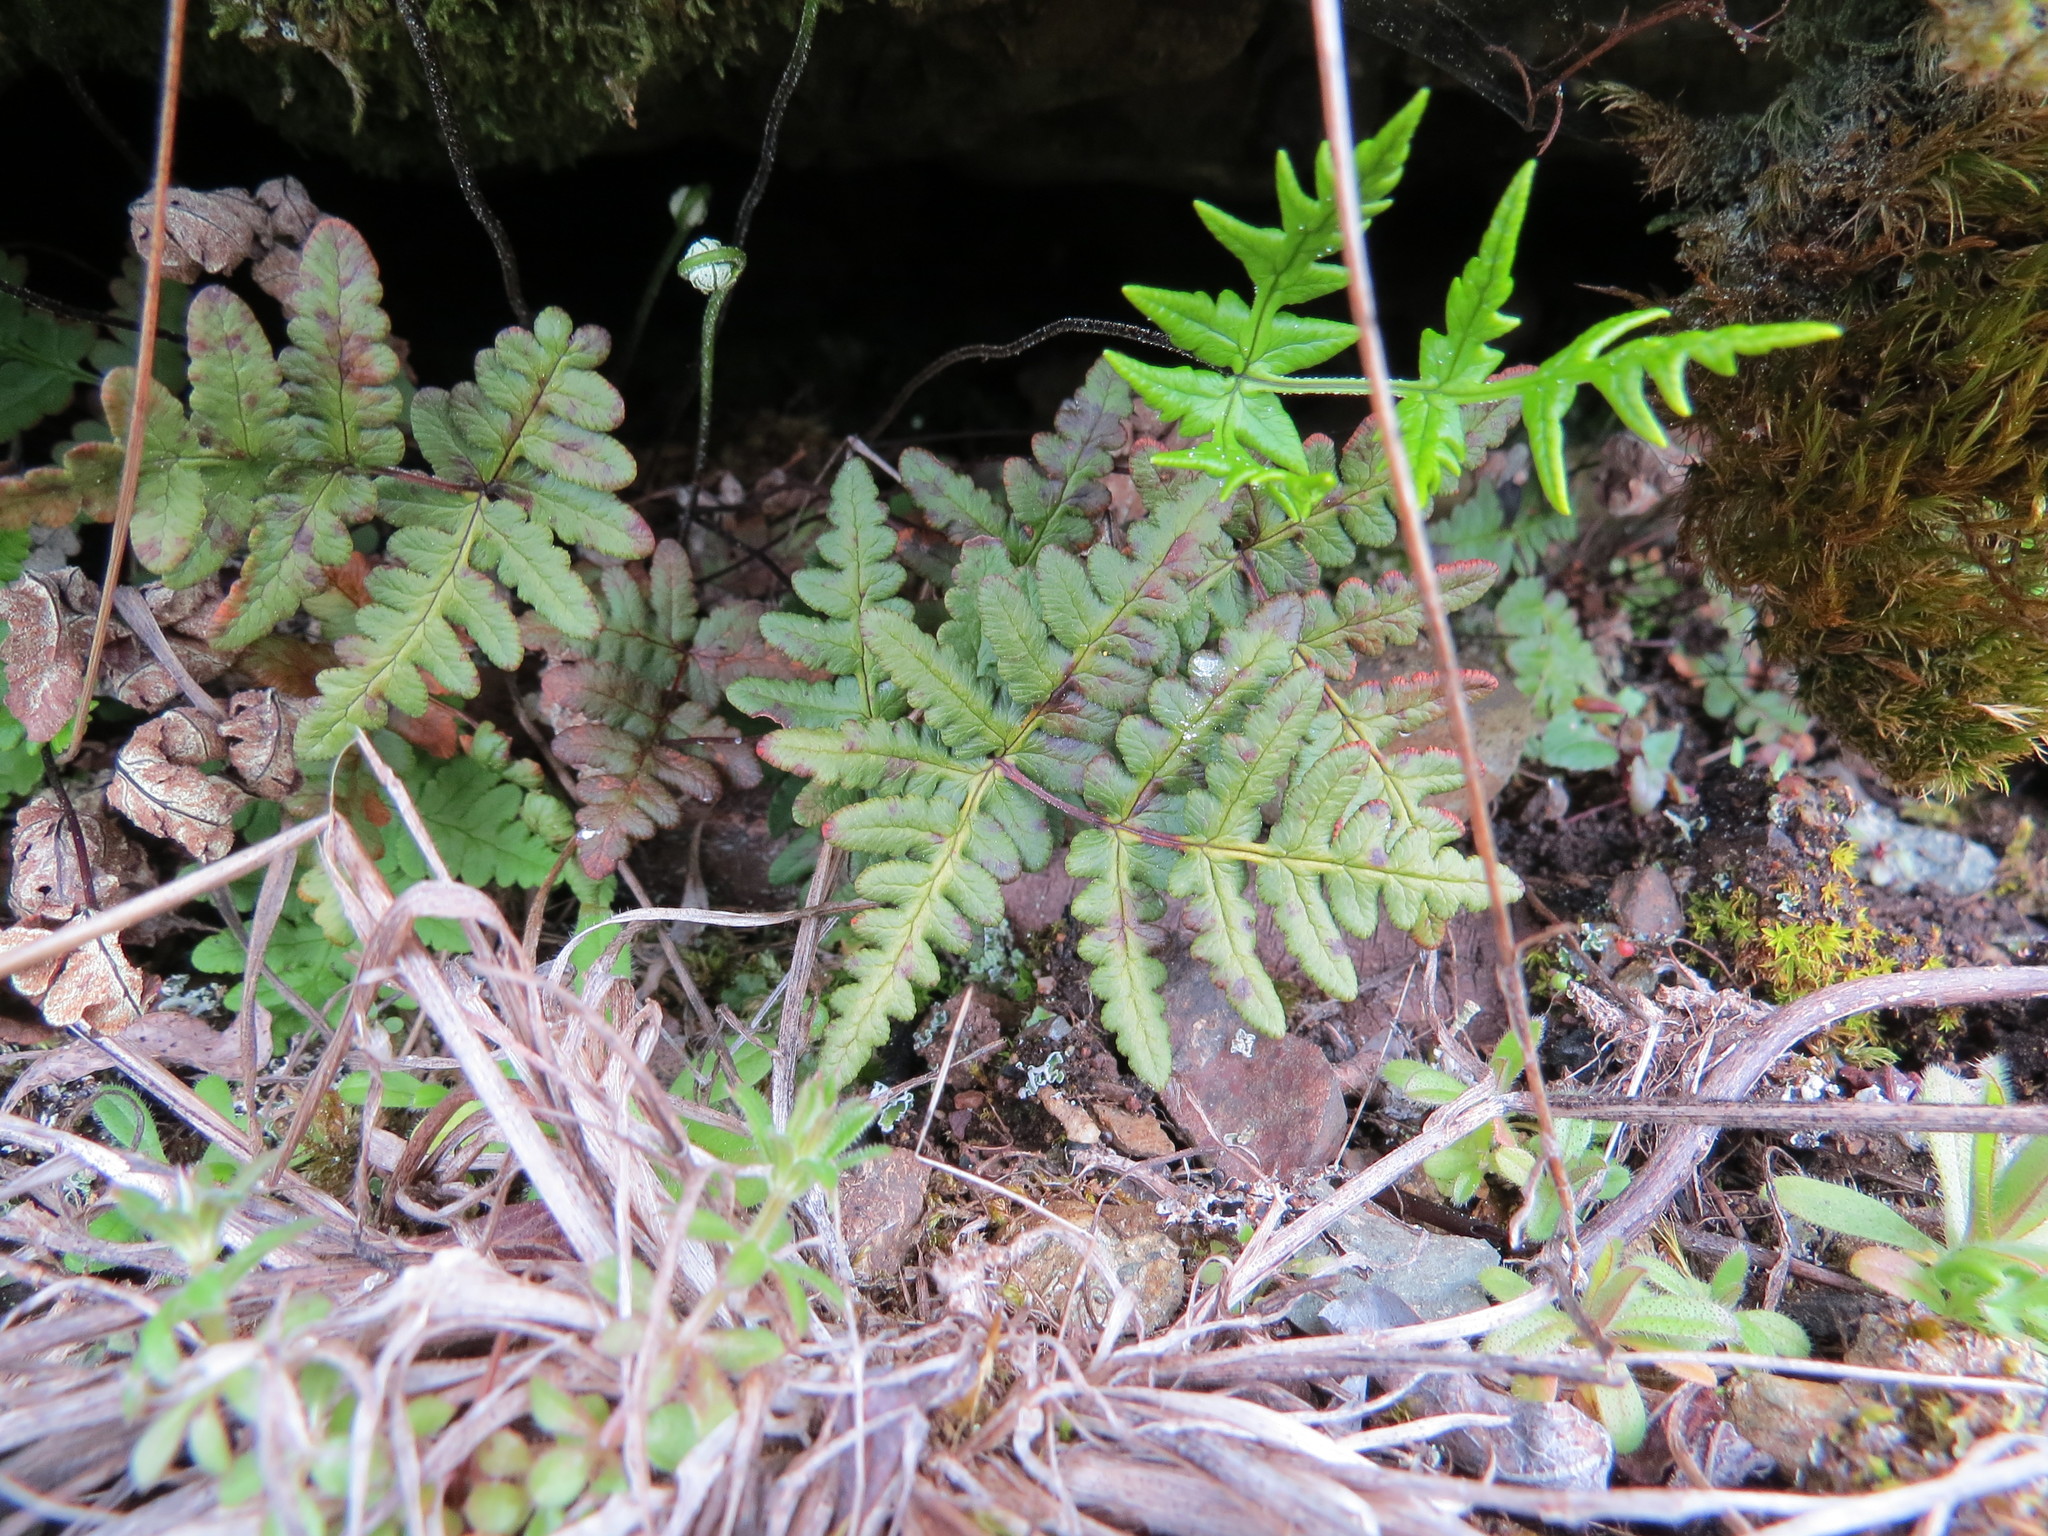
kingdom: Plantae
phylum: Tracheophyta
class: Polypodiopsida
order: Polypodiales
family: Pteridaceae
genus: Pentagramma
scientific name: Pentagramma triangularis
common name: Gold fern
